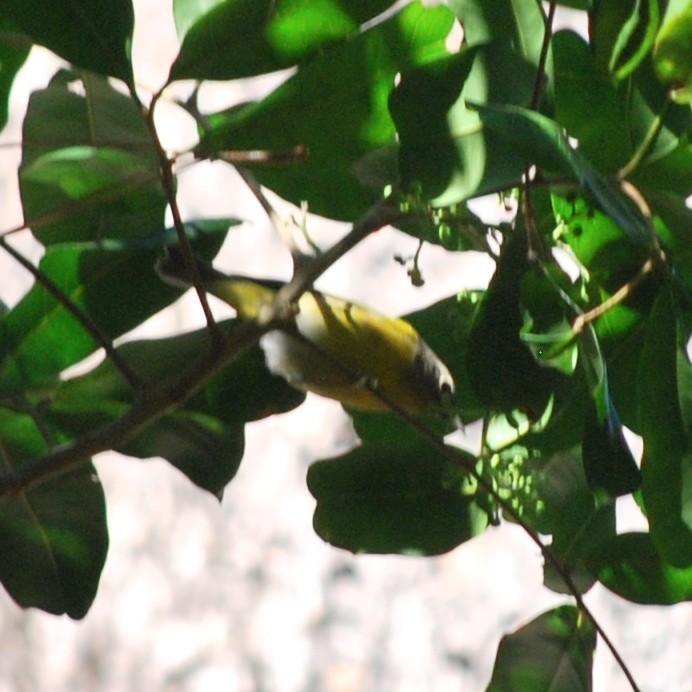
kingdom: Animalia
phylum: Chordata
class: Aves
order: Passeriformes
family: Parulidae
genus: Leiothlypis
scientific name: Leiothlypis ruficapilla
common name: Nashville warbler
